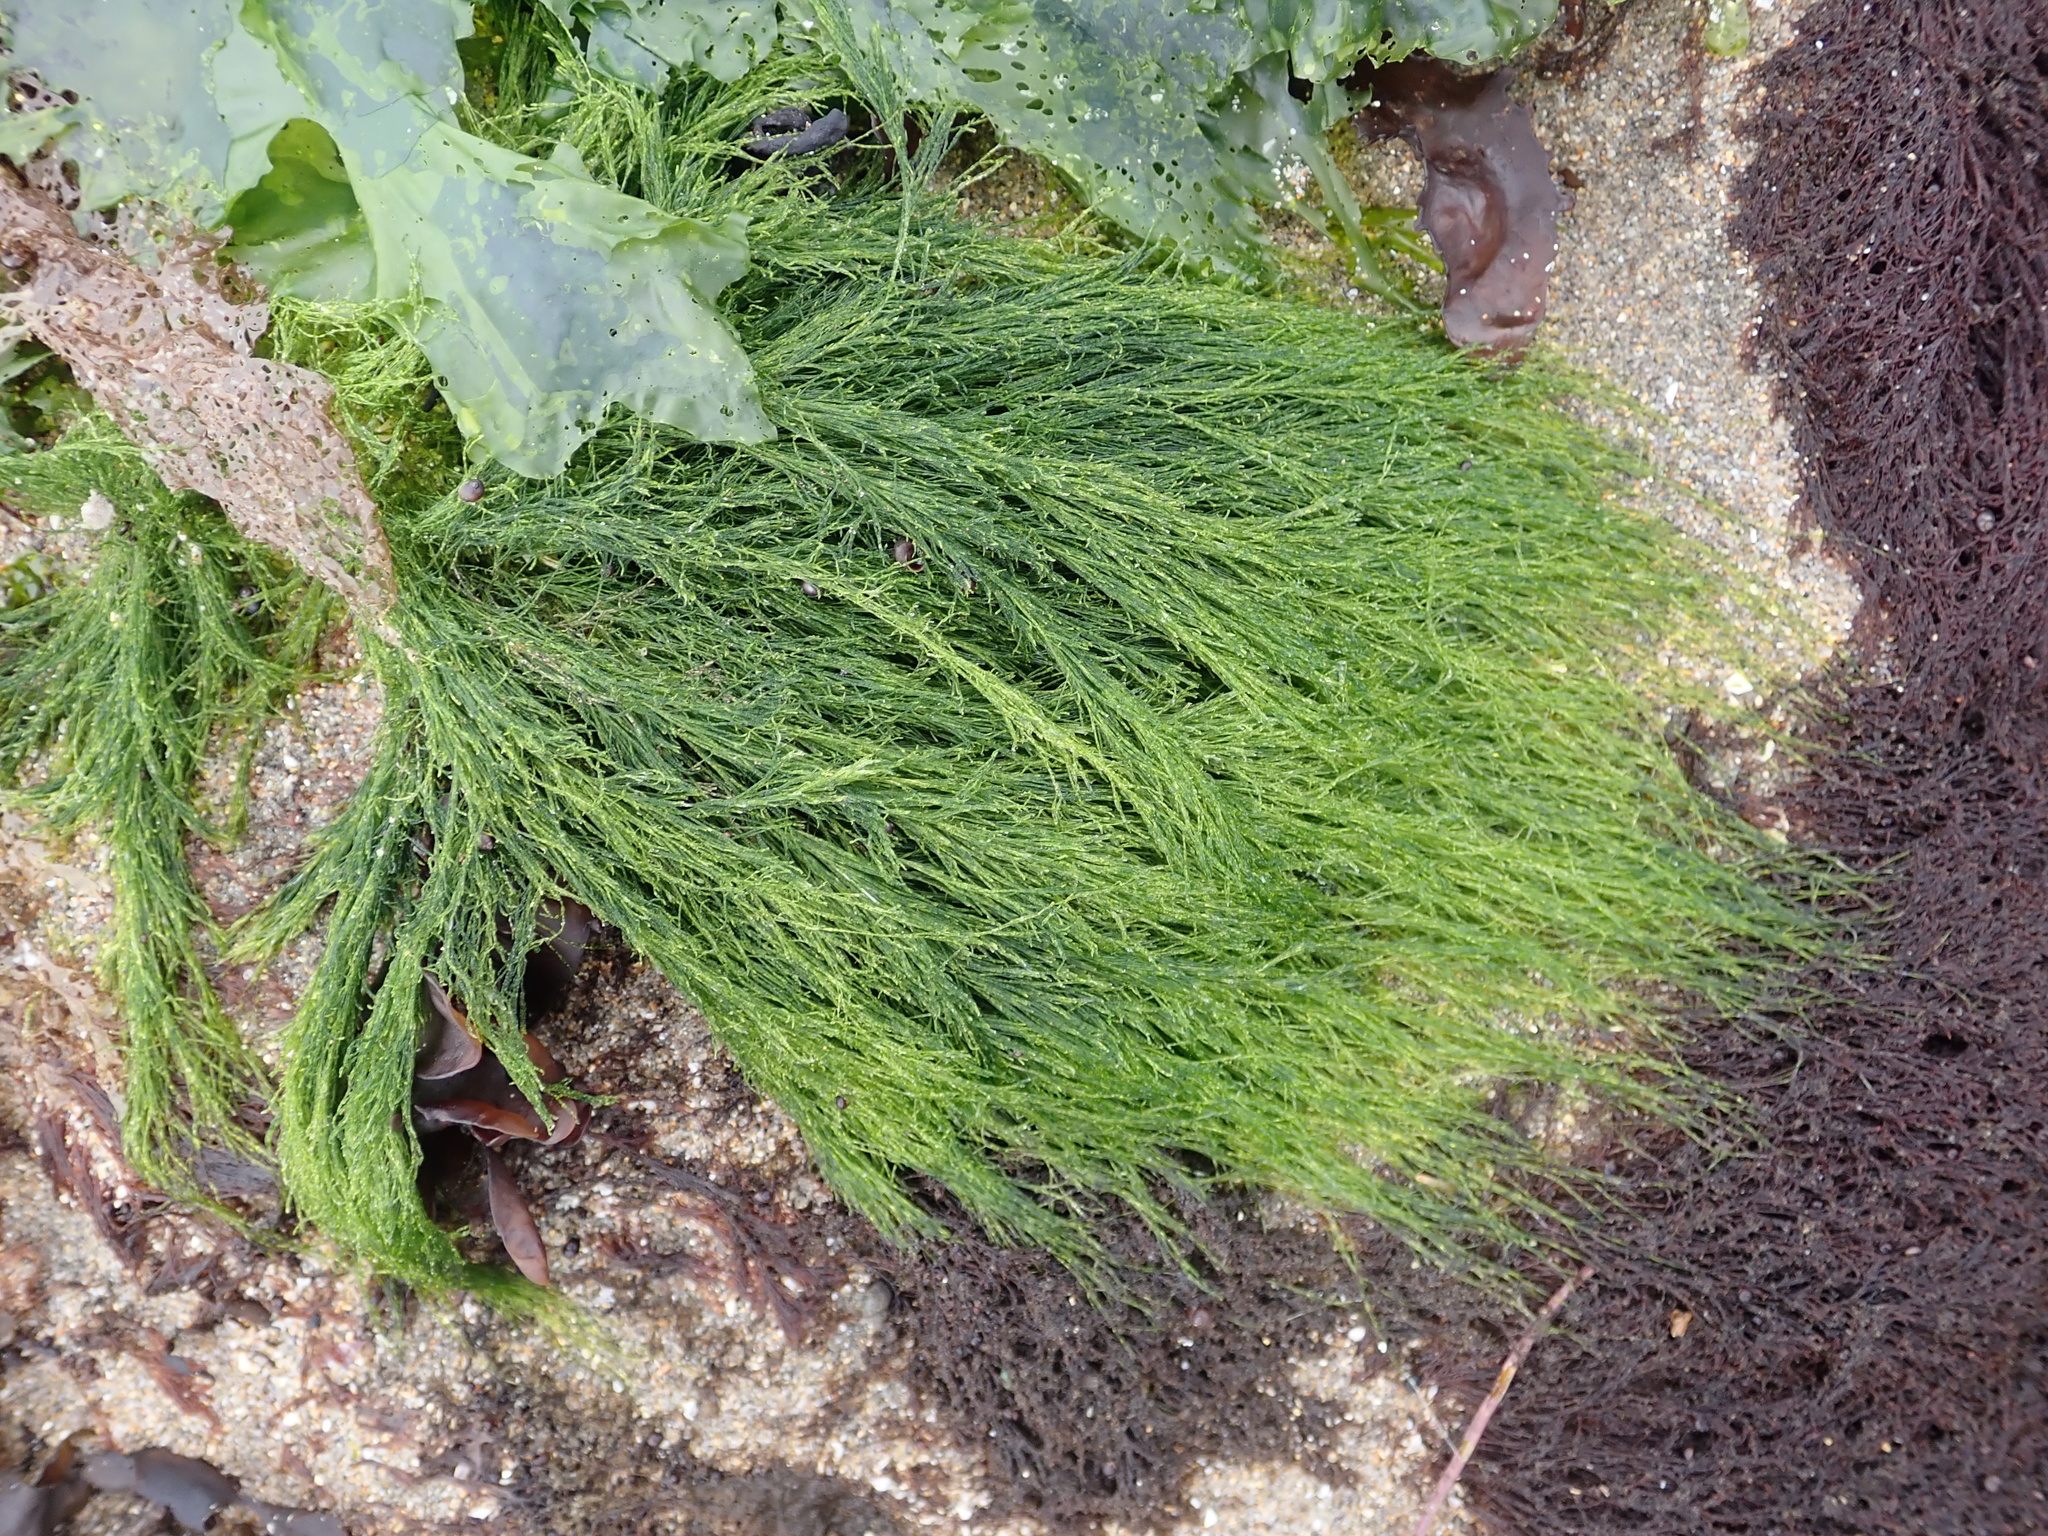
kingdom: Plantae
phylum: Chlorophyta
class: Ulvophyceae
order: Ulotrichales
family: Ulotrichaceae
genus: Acrosiphonia
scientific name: Acrosiphonia
